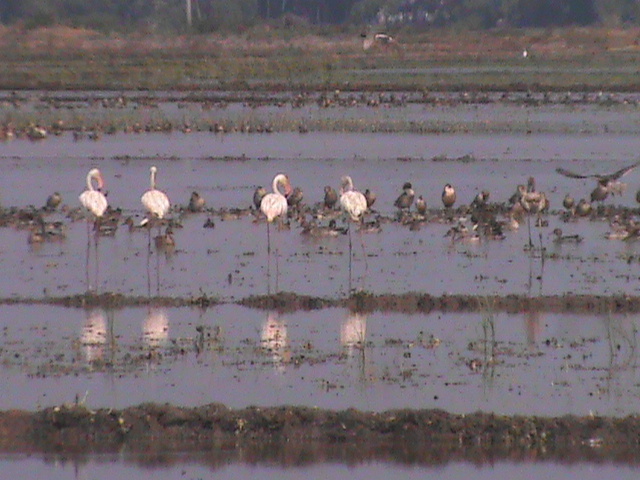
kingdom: Animalia
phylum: Chordata
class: Aves
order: Anseriformes
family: Anatidae
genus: Anas
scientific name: Anas acuta
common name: Northern pintail
